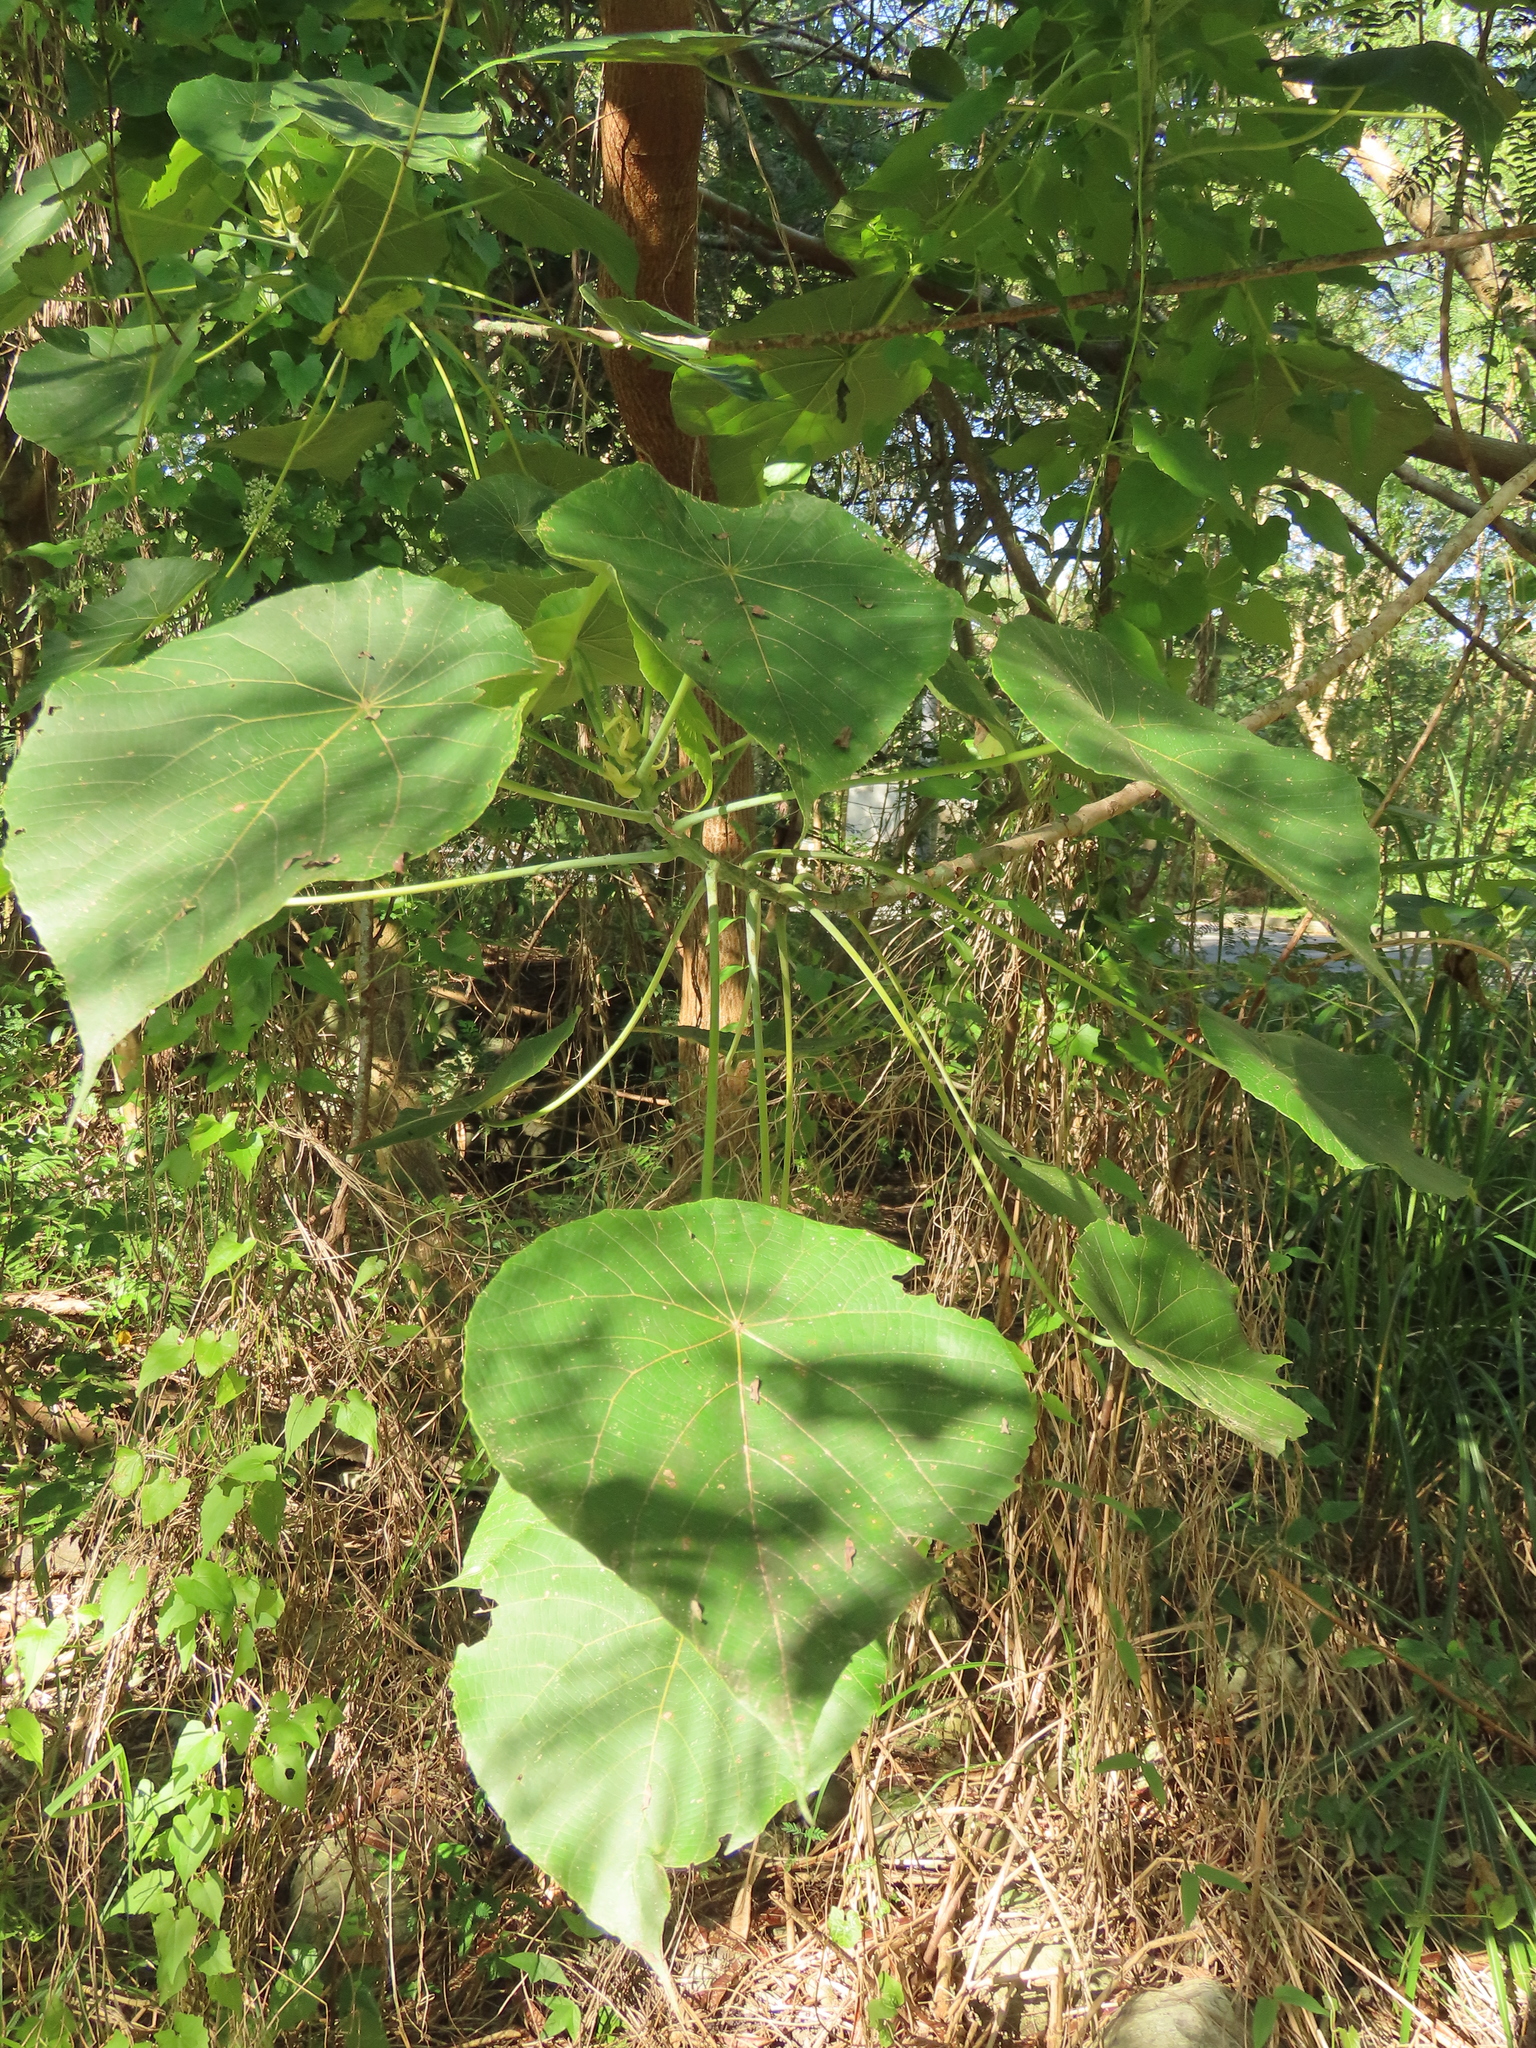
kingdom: Plantae
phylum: Tracheophyta
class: Magnoliopsida
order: Malpighiales
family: Euphorbiaceae
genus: Macaranga
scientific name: Macaranga tanarius
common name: Parasol leaf tree
